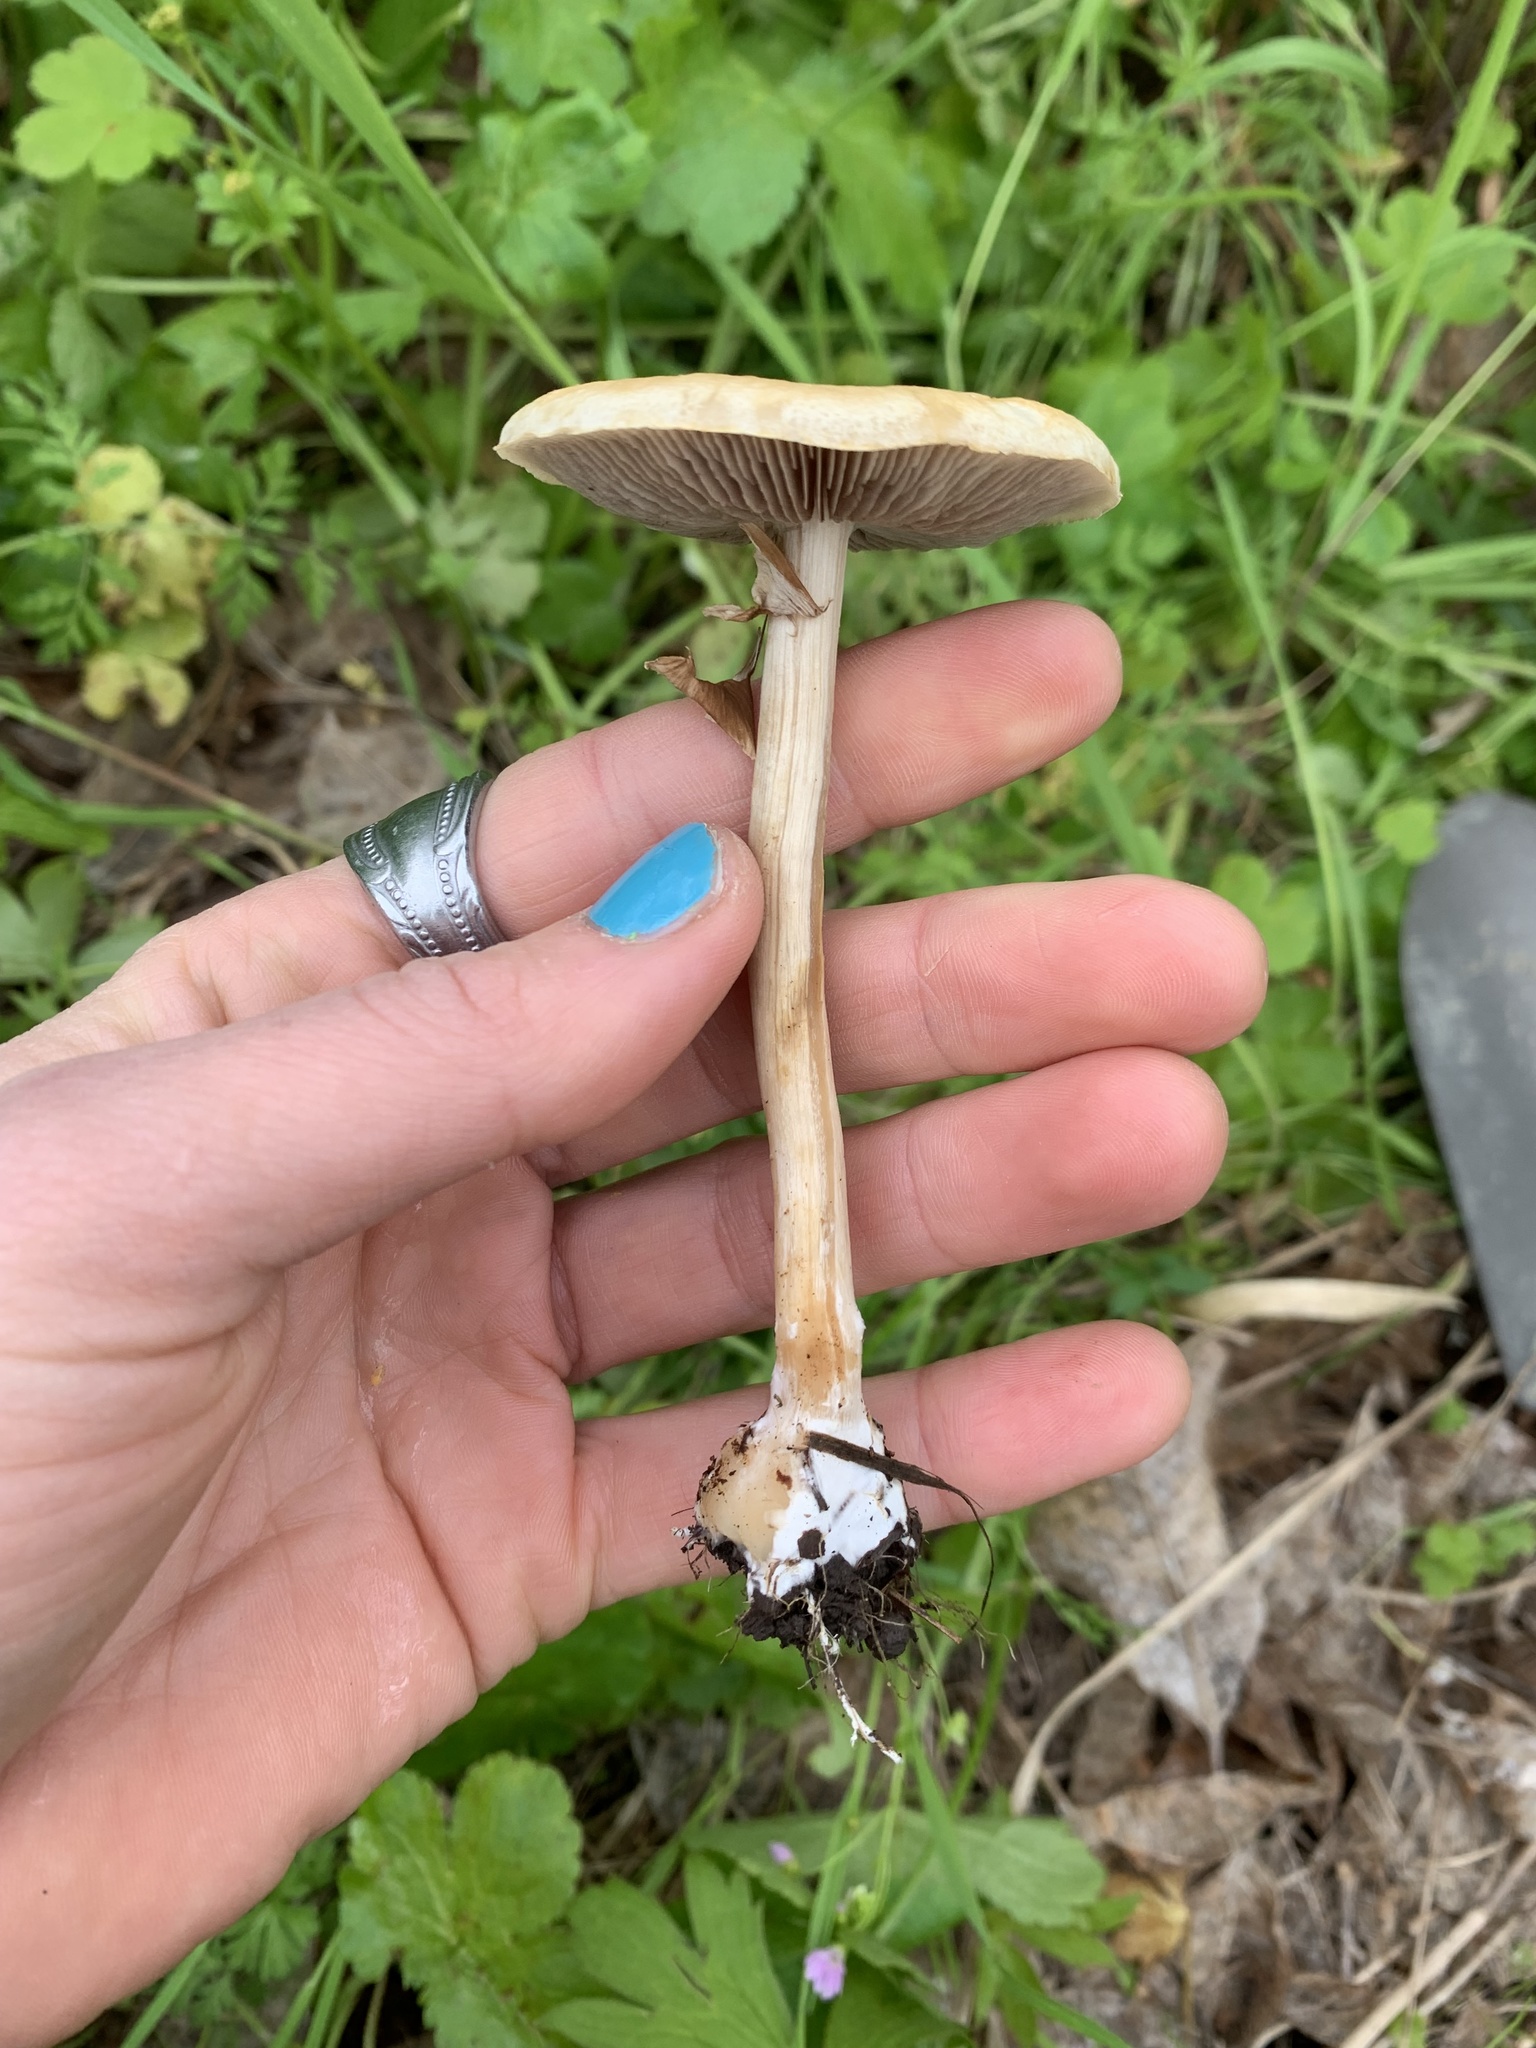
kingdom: Fungi
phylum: Basidiomycota
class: Agaricomycetes
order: Agaricales
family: Strophariaceae
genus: Agrocybe
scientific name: Agrocybe pediades
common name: Common fieldcap
